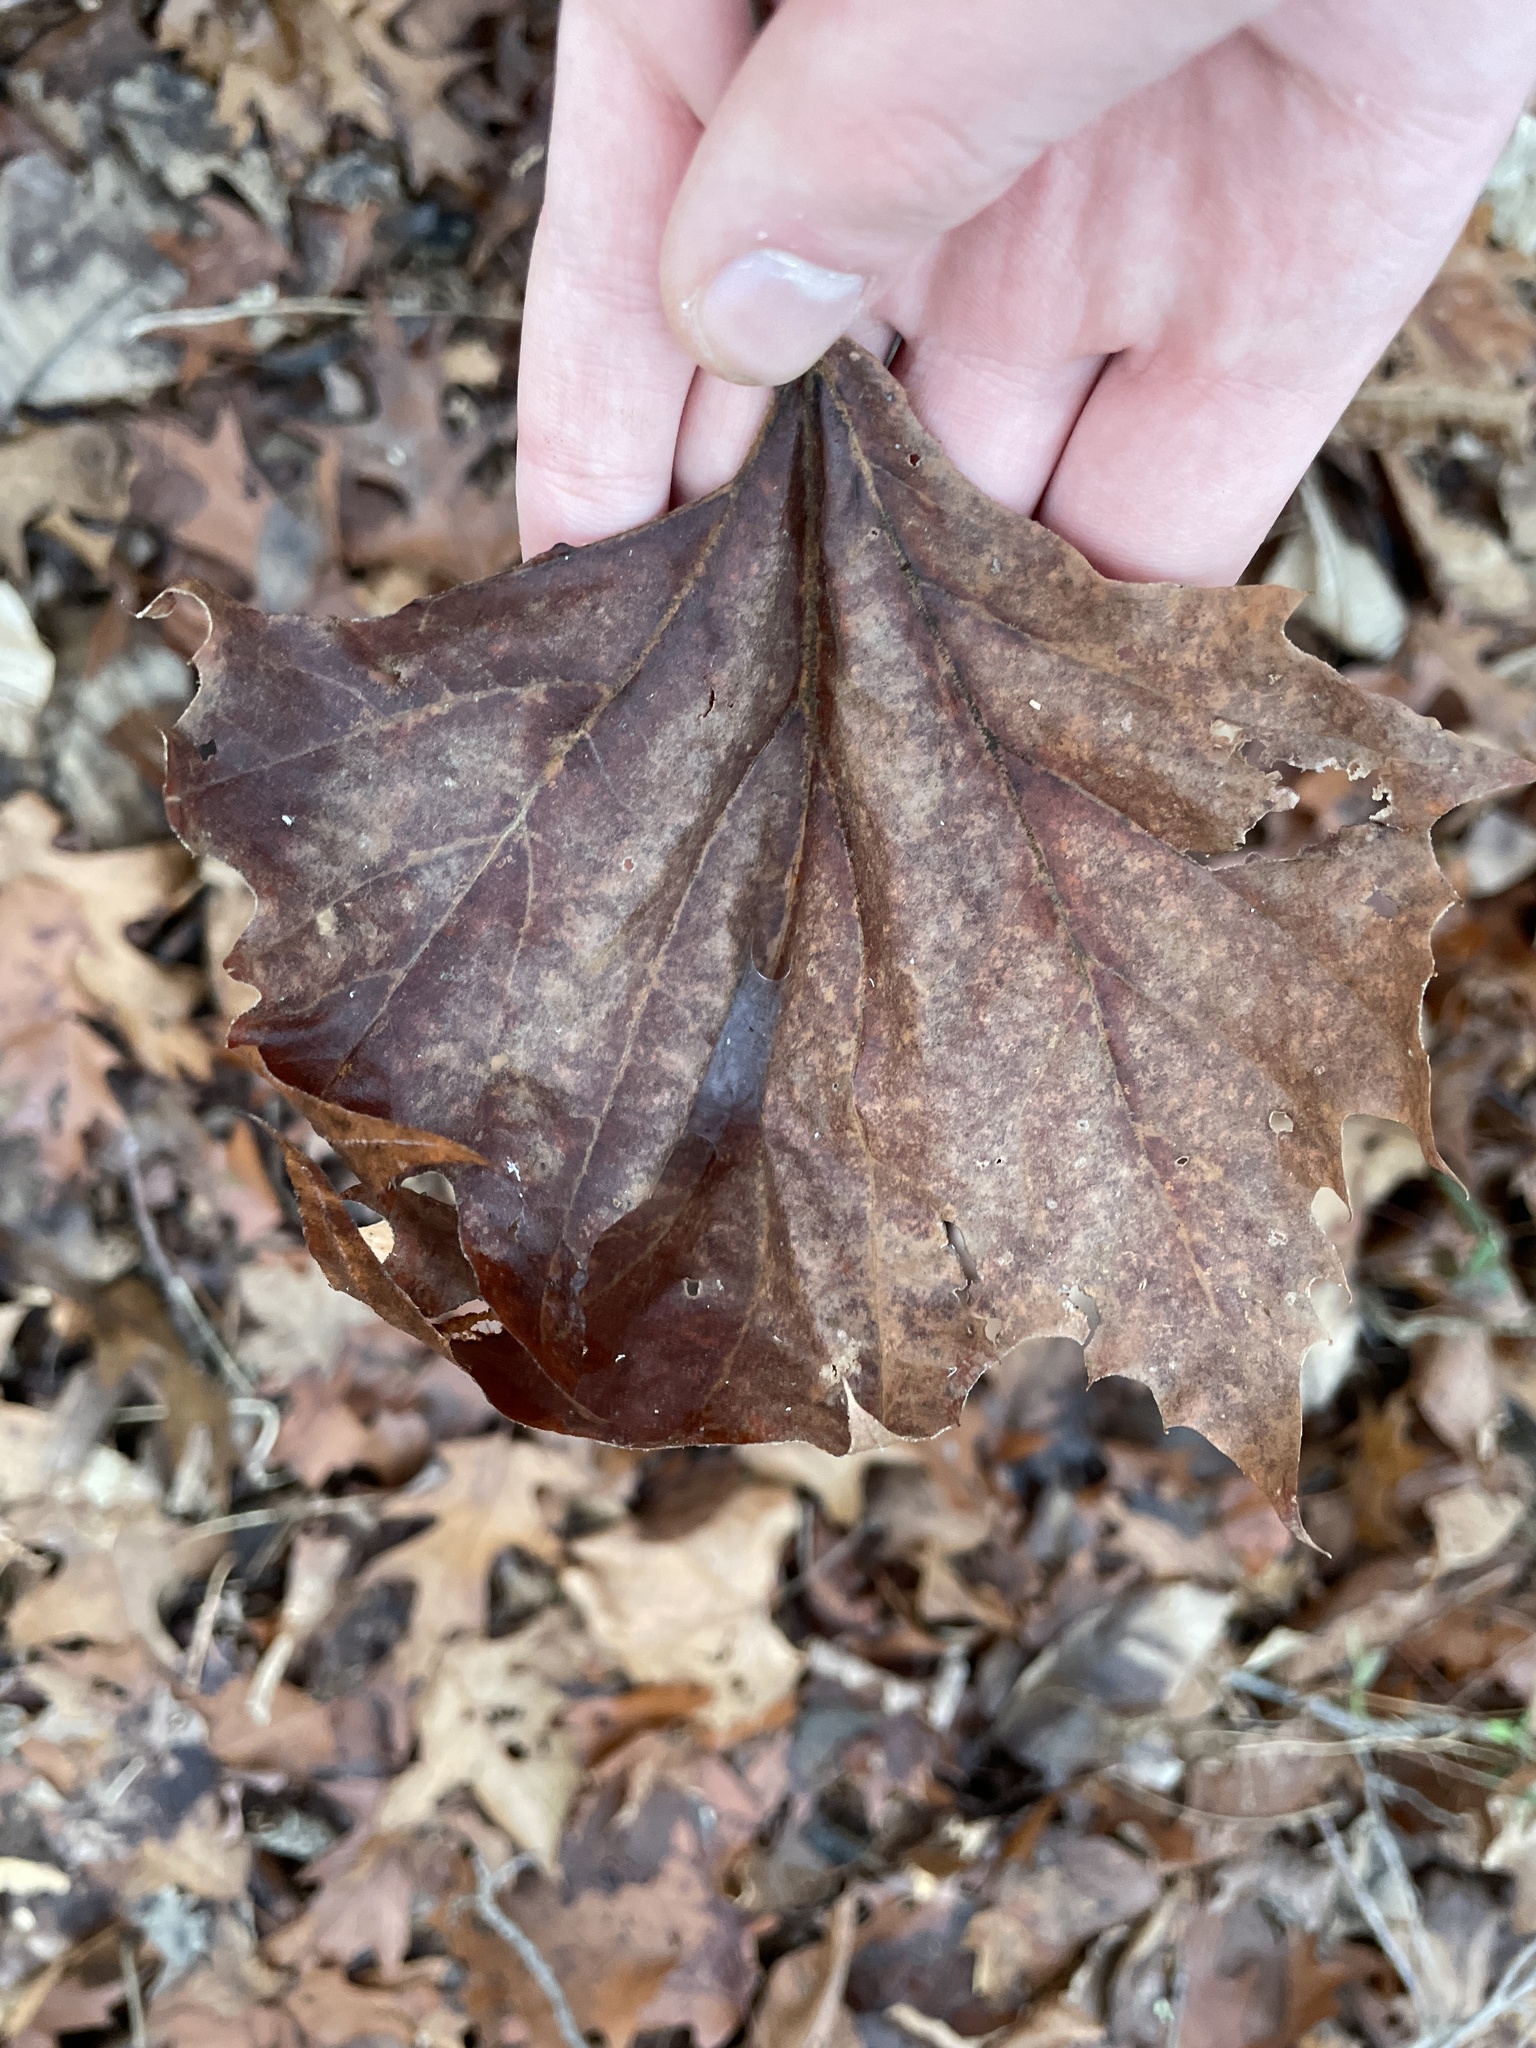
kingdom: Plantae
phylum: Tracheophyta
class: Magnoliopsida
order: Proteales
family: Platanaceae
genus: Platanus
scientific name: Platanus occidentalis
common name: American sycamore
